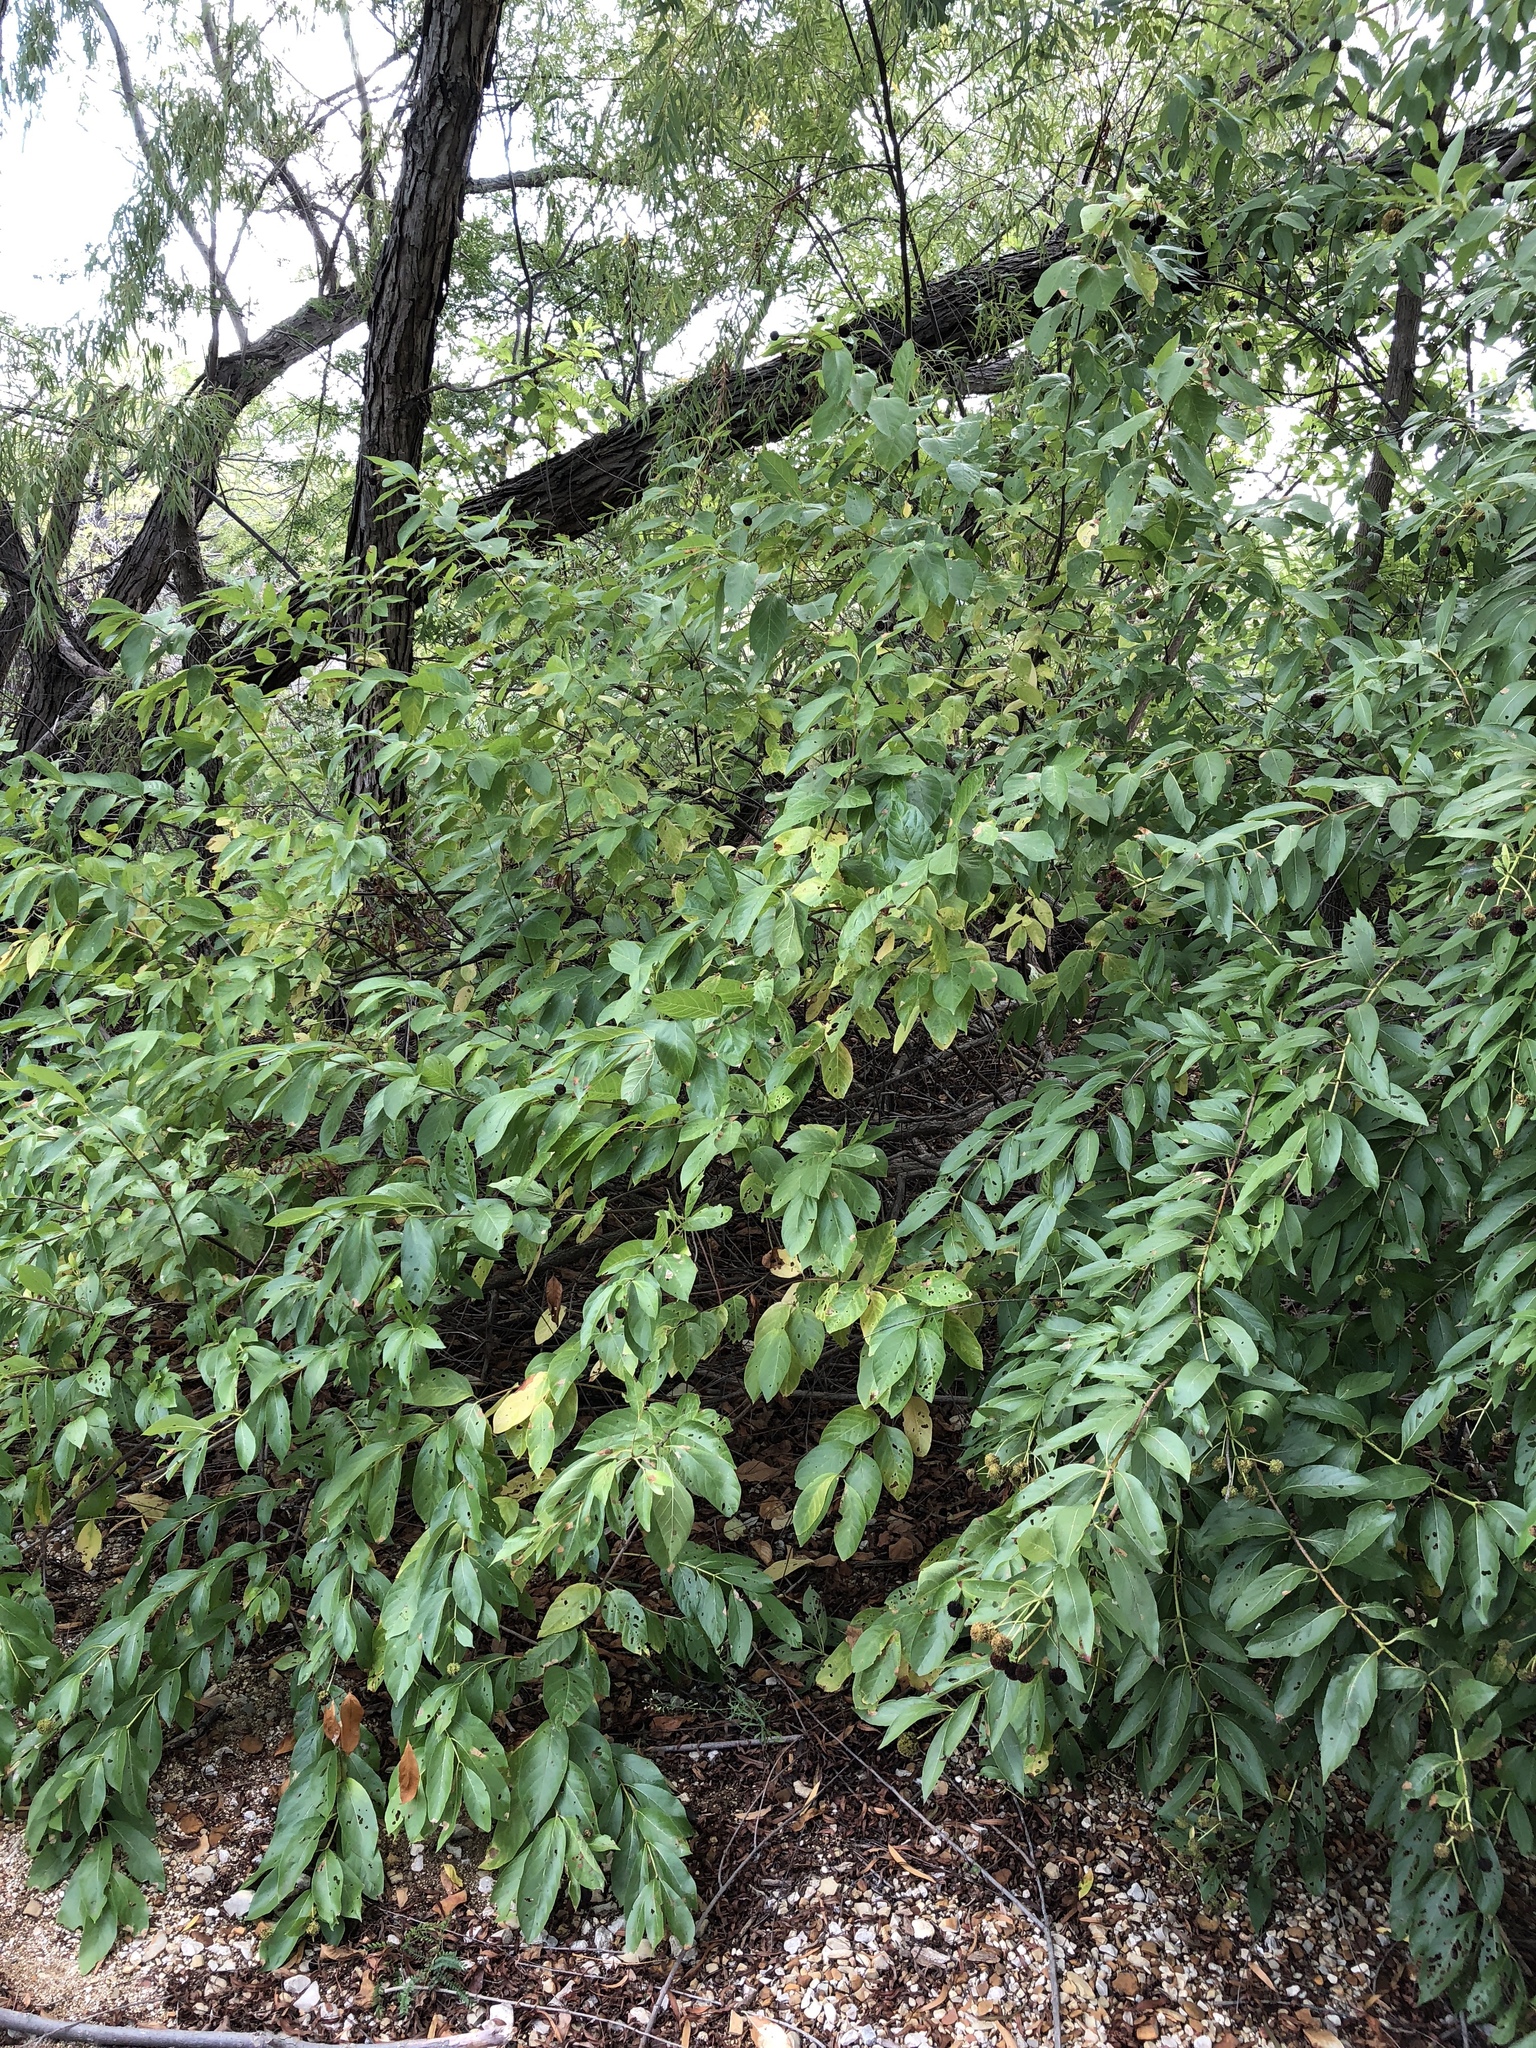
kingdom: Plantae
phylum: Tracheophyta
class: Magnoliopsida
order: Gentianales
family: Rubiaceae
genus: Cephalanthus
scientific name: Cephalanthus occidentalis
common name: Button-willow
